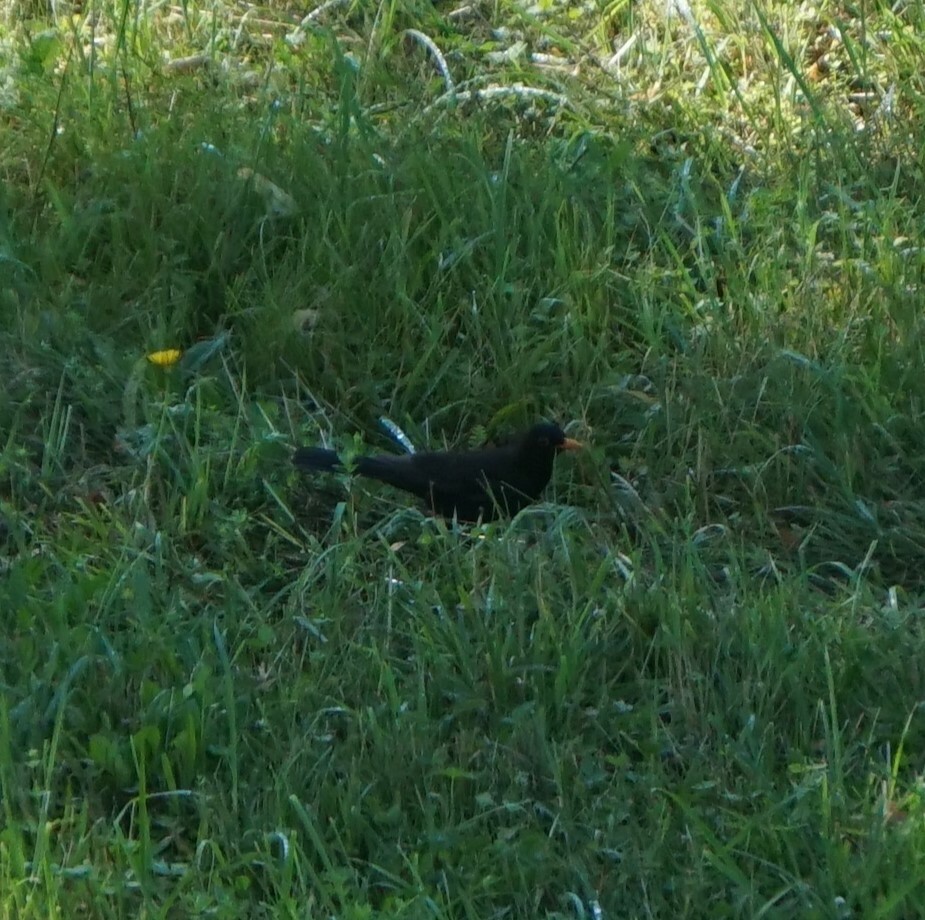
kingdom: Animalia
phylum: Chordata
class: Aves
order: Passeriformes
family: Turdidae
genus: Turdus
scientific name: Turdus merula
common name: Common blackbird
